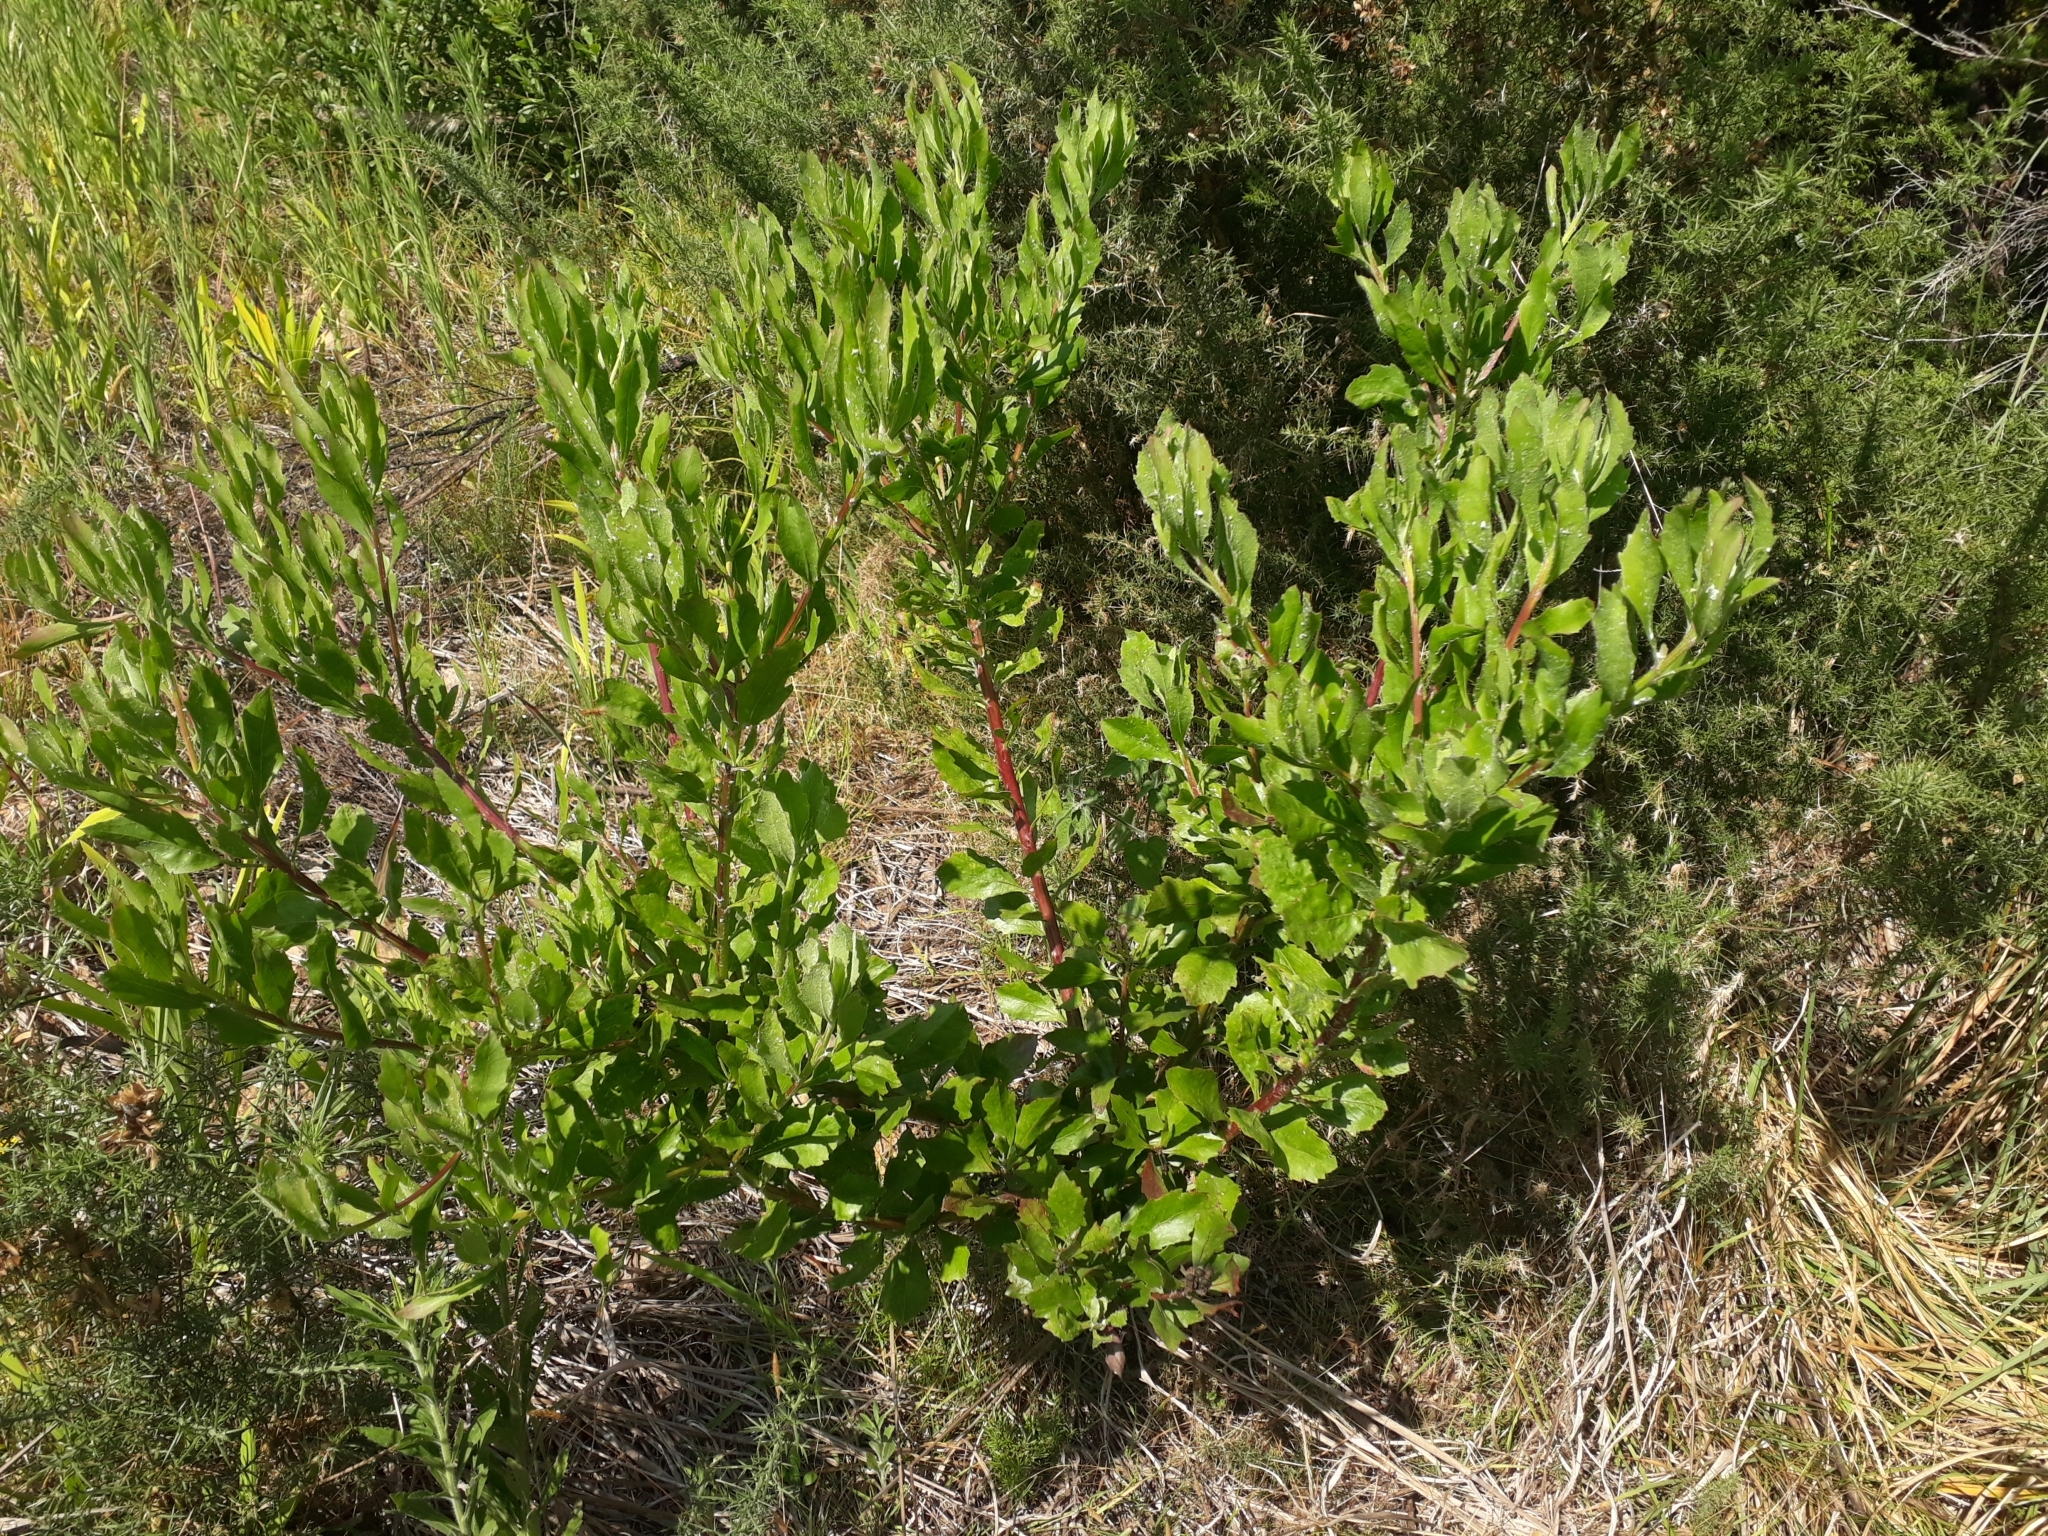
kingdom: Plantae
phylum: Tracheophyta
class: Magnoliopsida
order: Asterales
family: Asteraceae
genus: Osteospermum
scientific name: Osteospermum moniliferum
